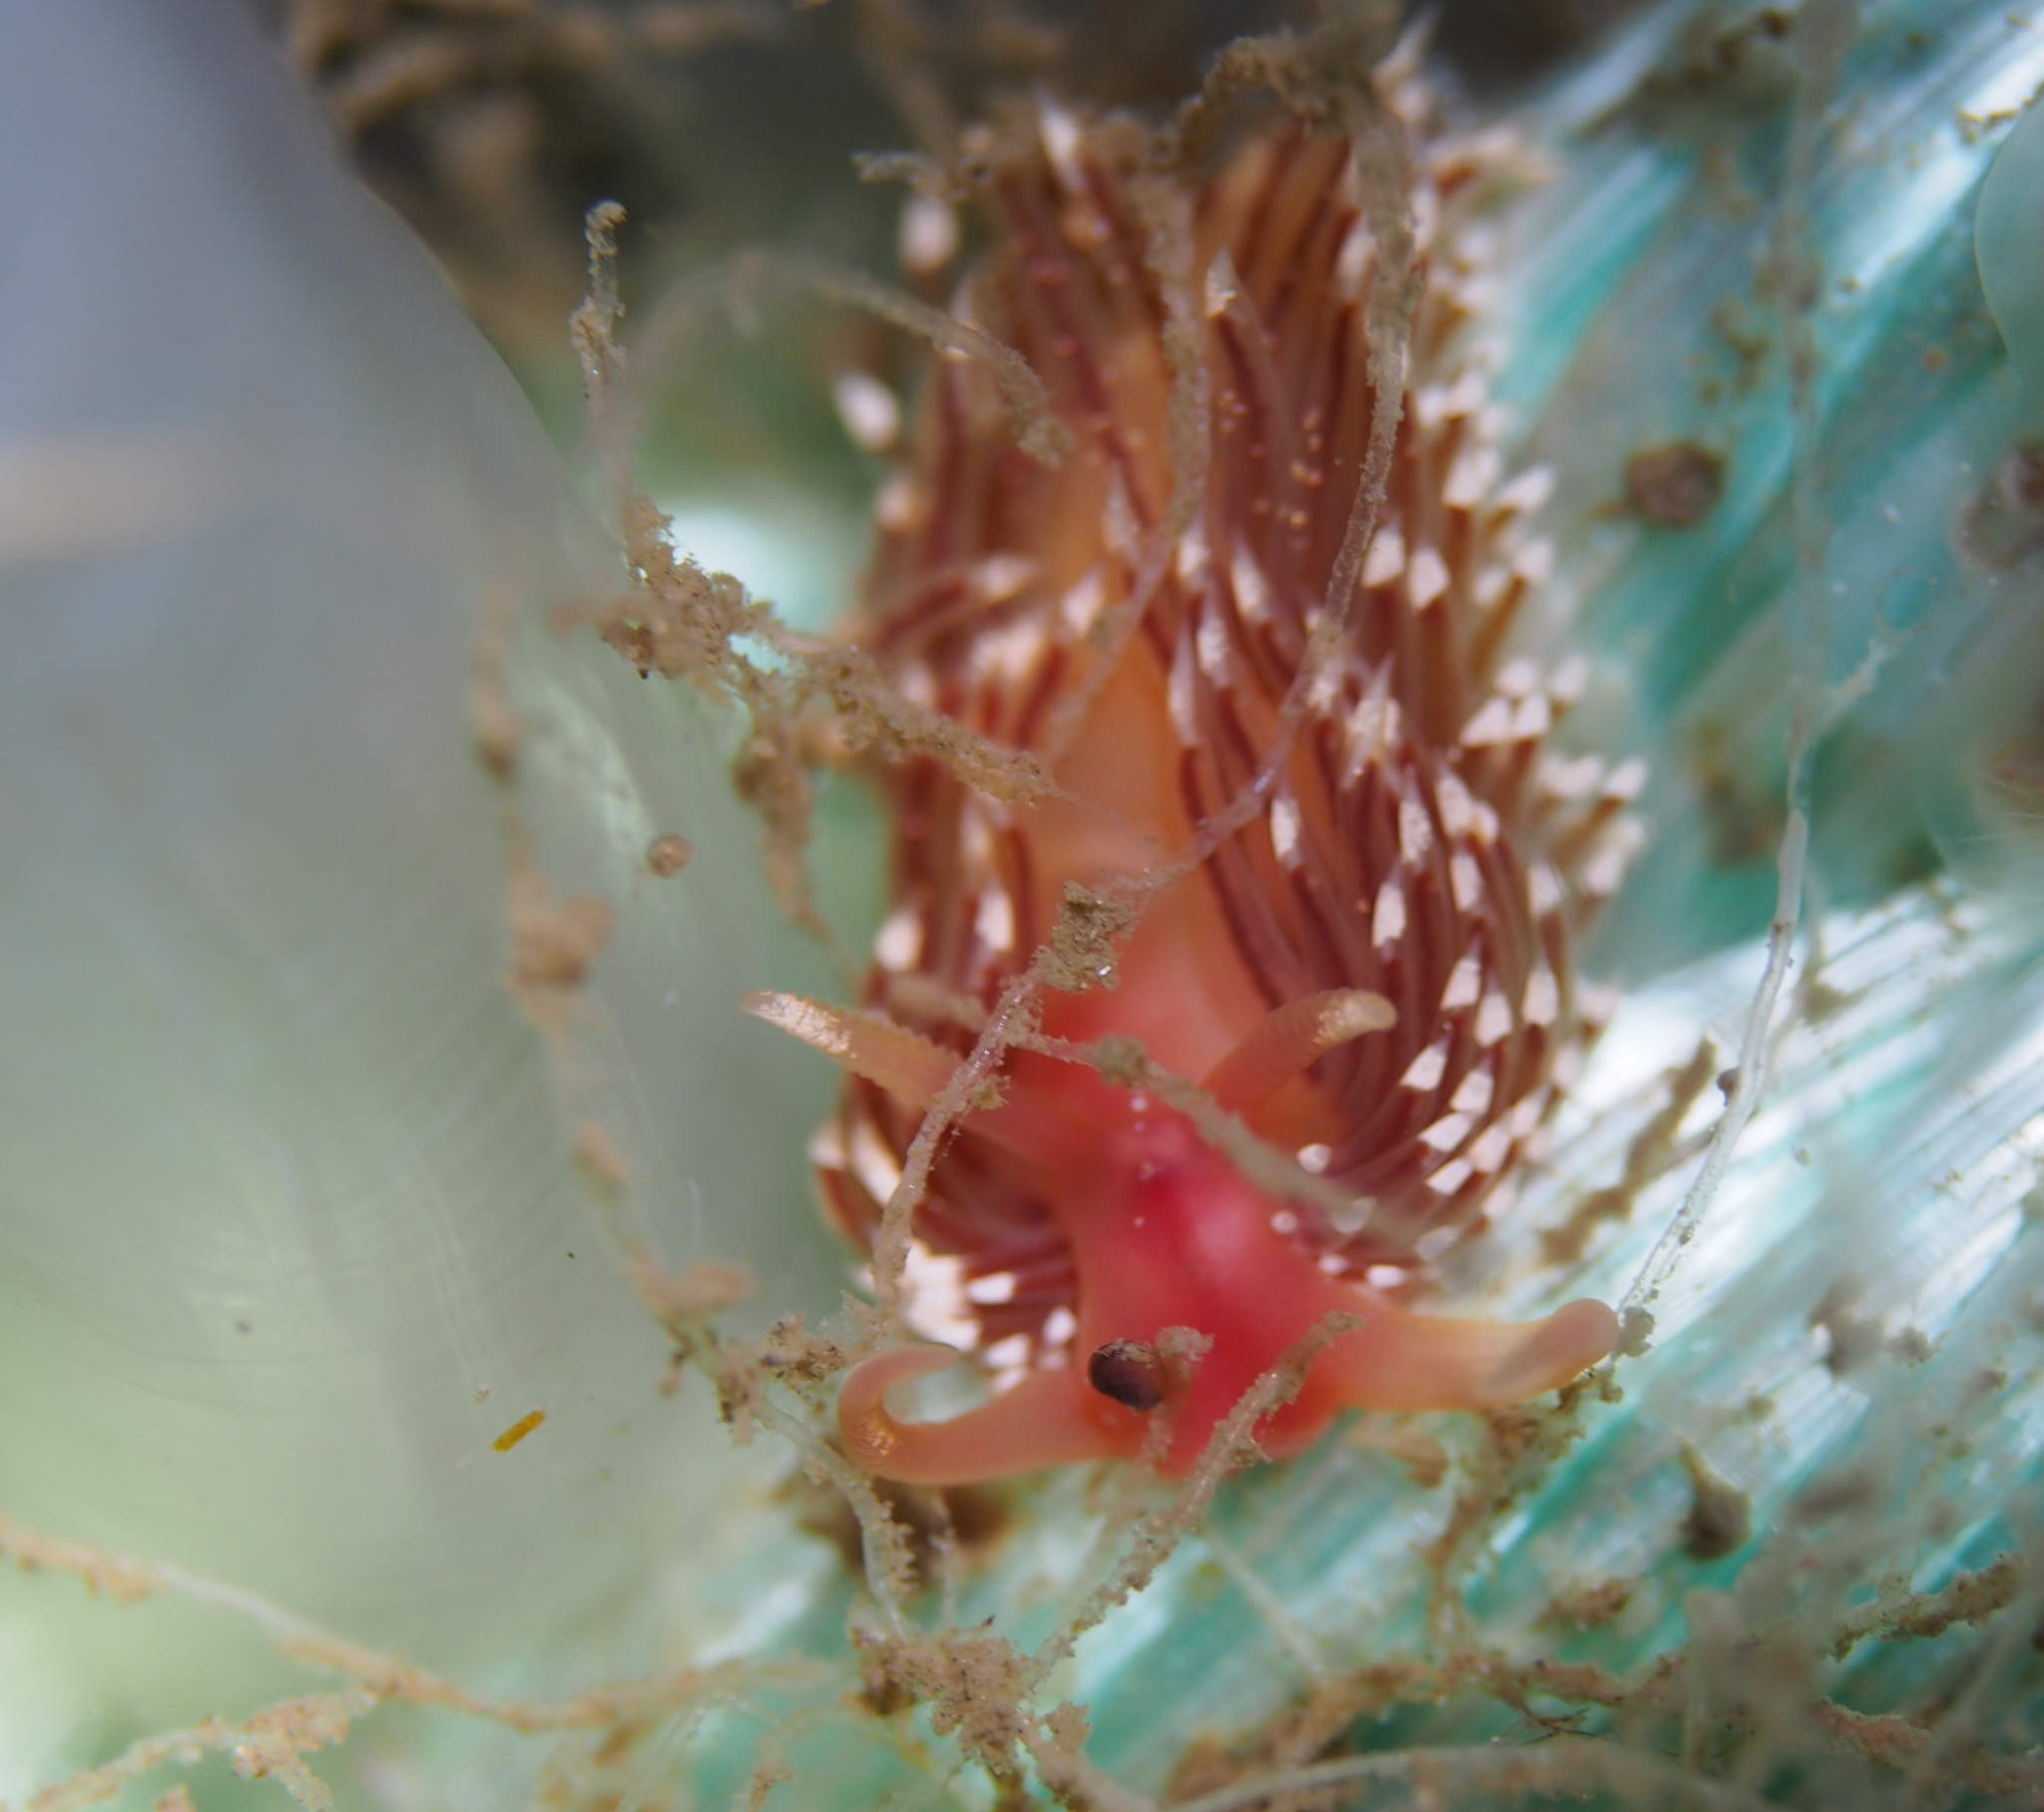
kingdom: Animalia
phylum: Mollusca
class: Gastropoda
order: Nudibranchia
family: Facelinidae
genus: Facelina
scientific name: Facelina bostoniensis
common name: Boston facelina
